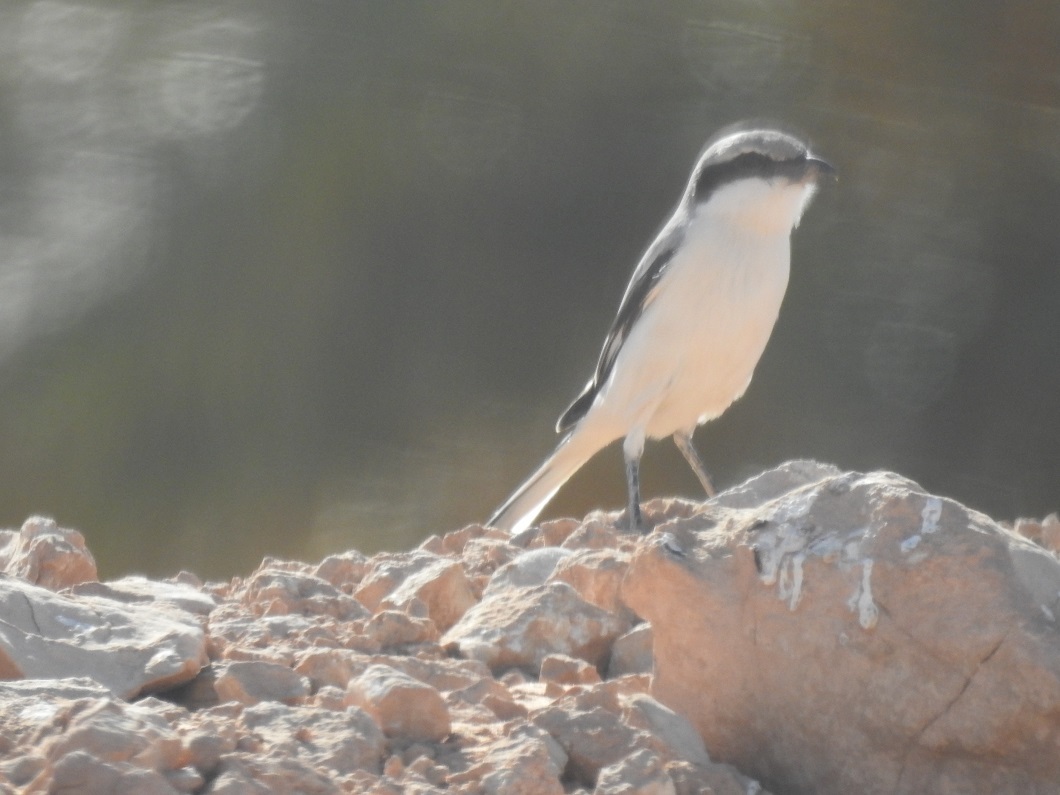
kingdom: Animalia
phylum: Chordata
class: Aves
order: Passeriformes
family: Laniidae
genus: Lanius
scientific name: Lanius excubitor
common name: Great grey shrike
